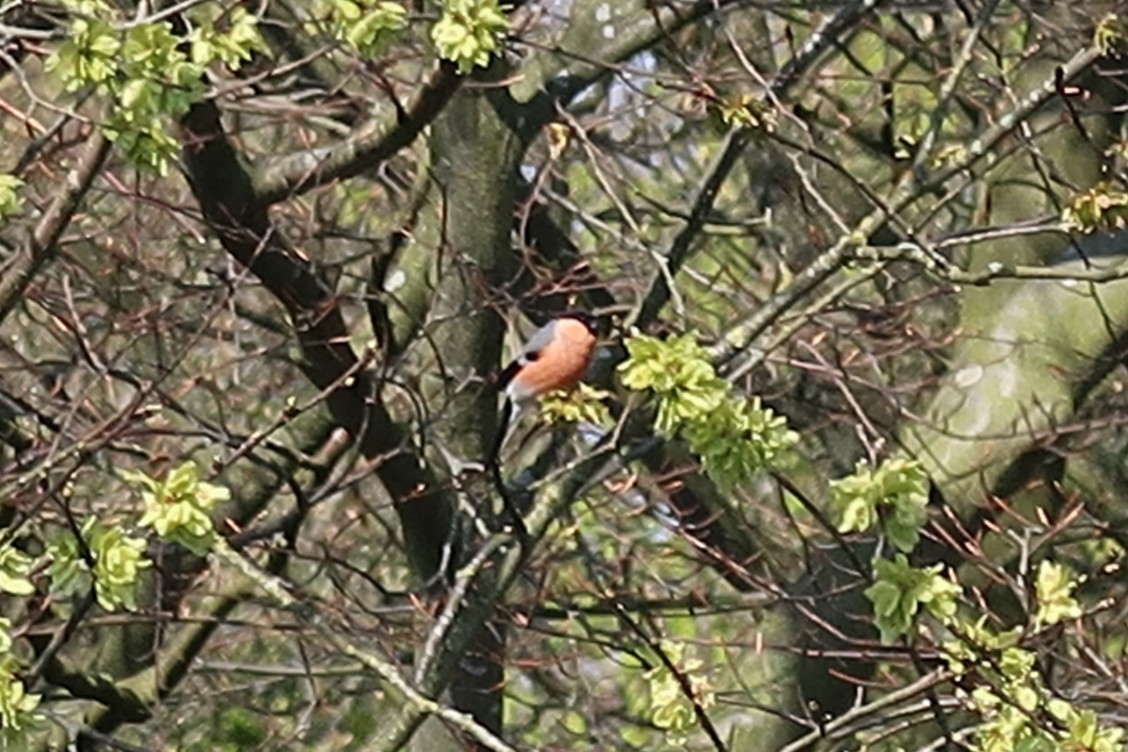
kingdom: Animalia
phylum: Chordata
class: Aves
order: Passeriformes
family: Fringillidae
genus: Pyrrhula
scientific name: Pyrrhula pyrrhula
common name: Eurasian bullfinch
